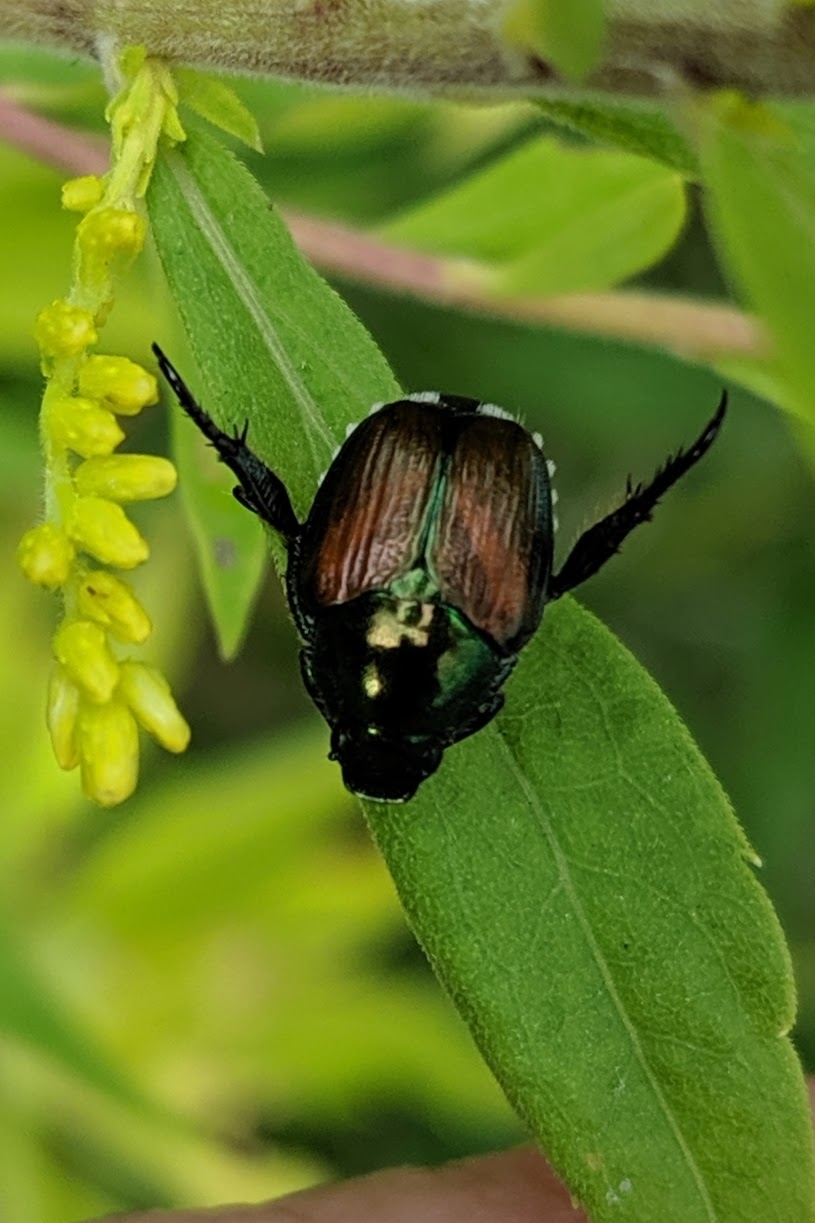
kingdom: Animalia
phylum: Arthropoda
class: Insecta
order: Coleoptera
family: Scarabaeidae
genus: Popillia
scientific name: Popillia japonica
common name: Japanese beetle
